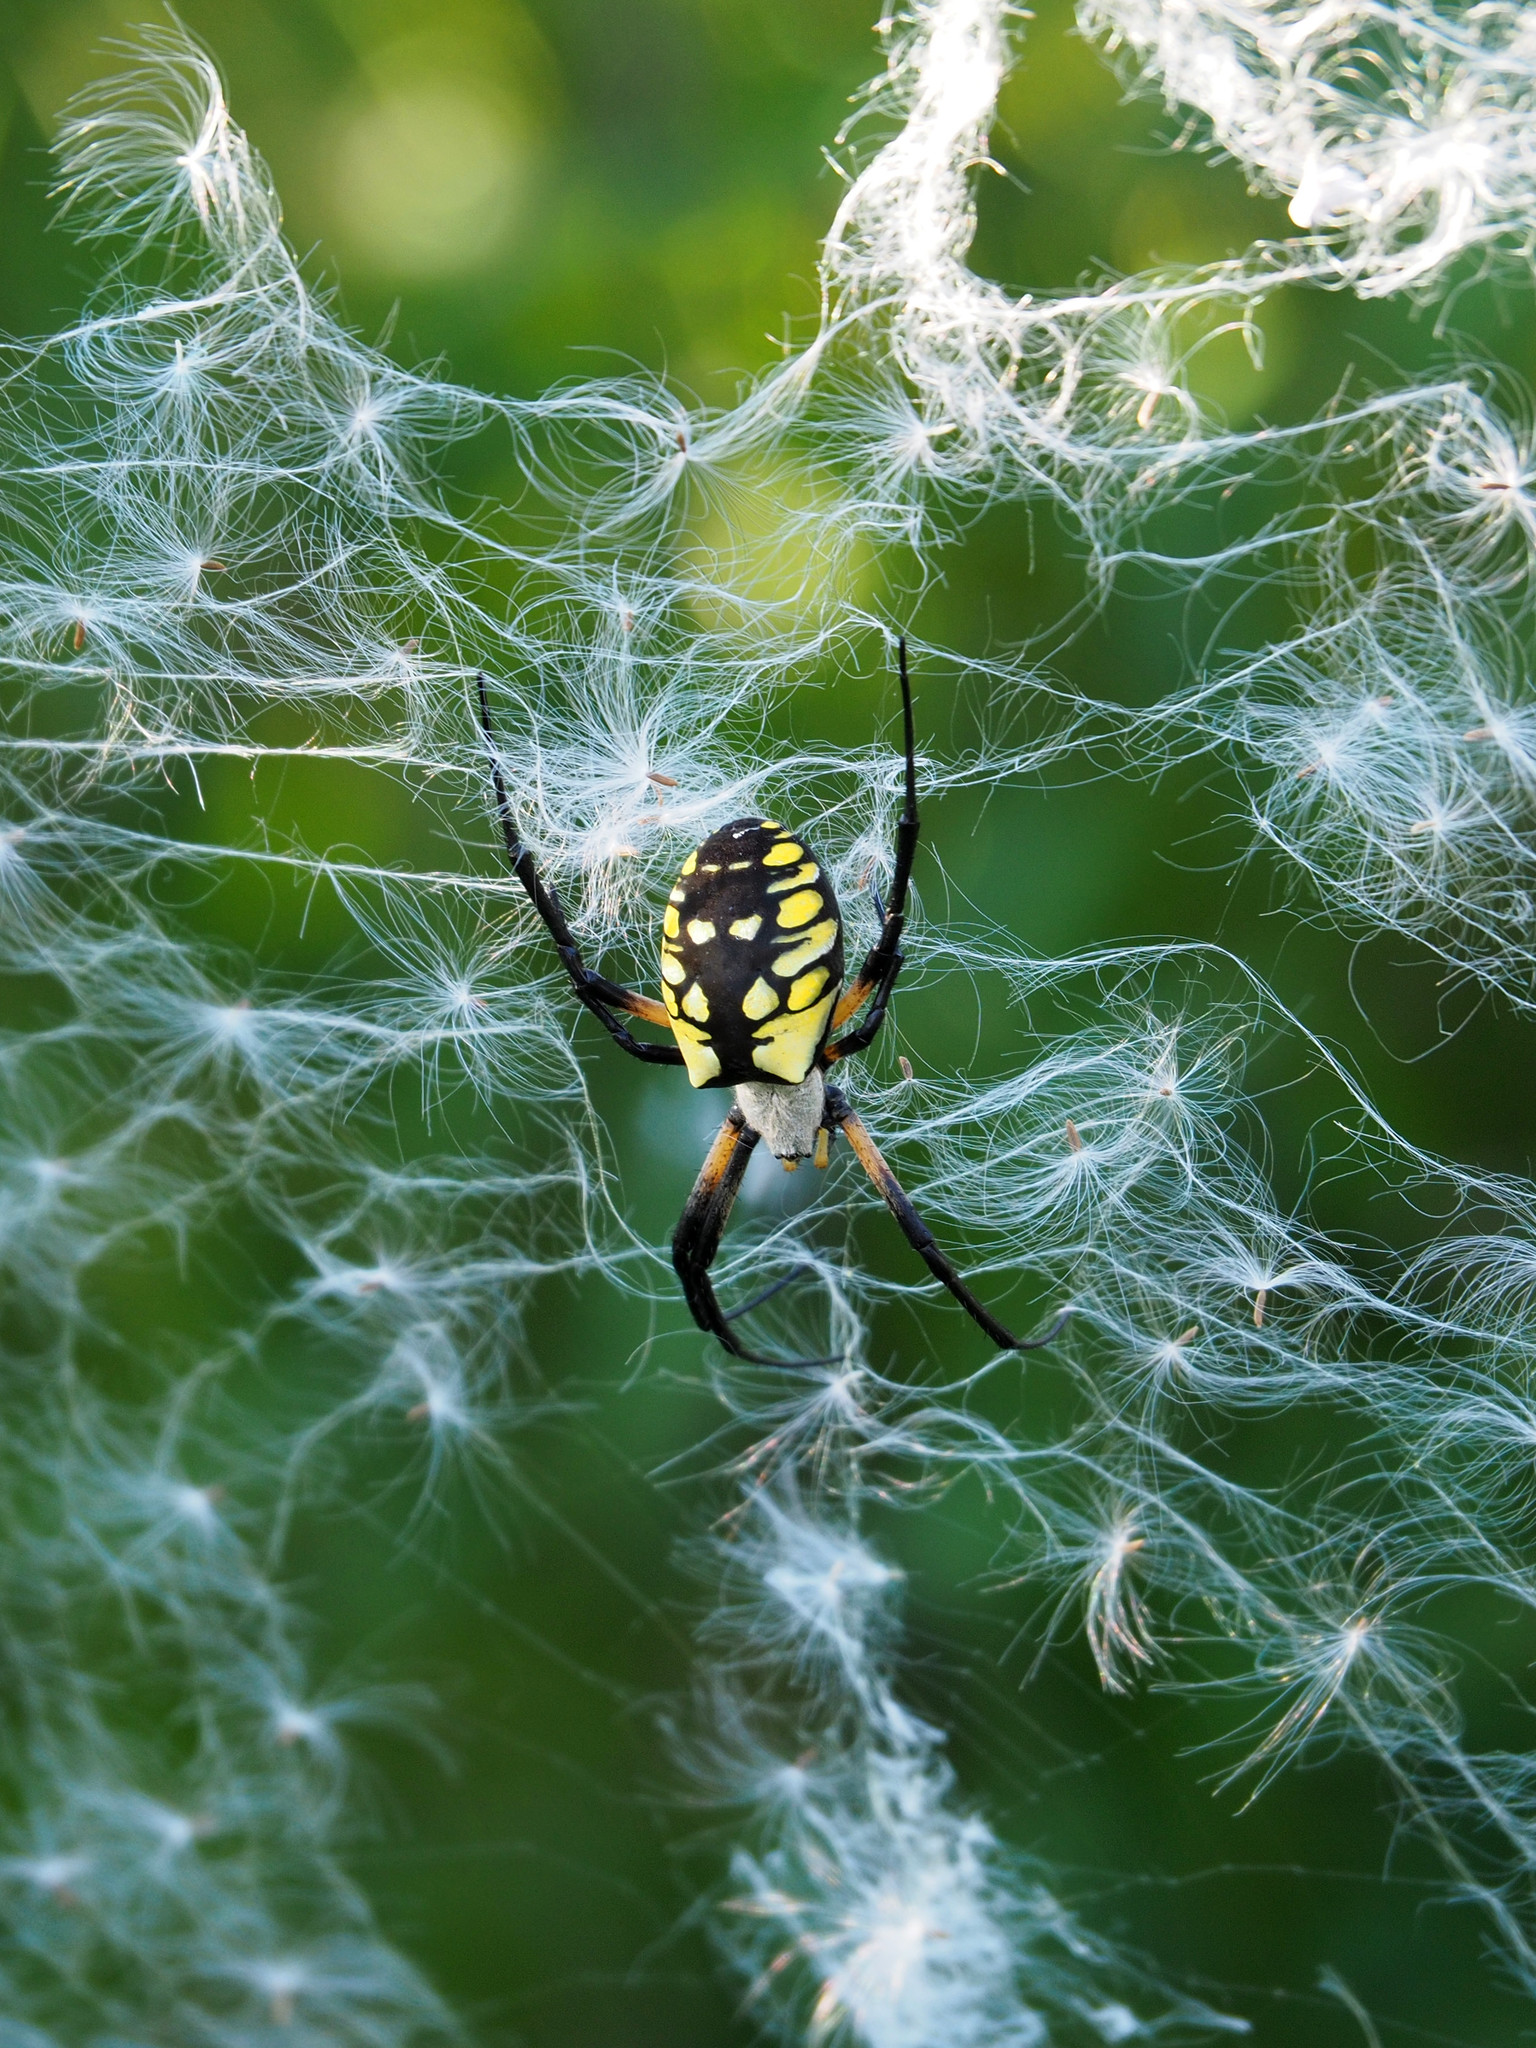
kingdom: Animalia
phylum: Arthropoda
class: Arachnida
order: Araneae
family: Araneidae
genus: Argiope
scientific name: Argiope aurantia
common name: Orb weavers
